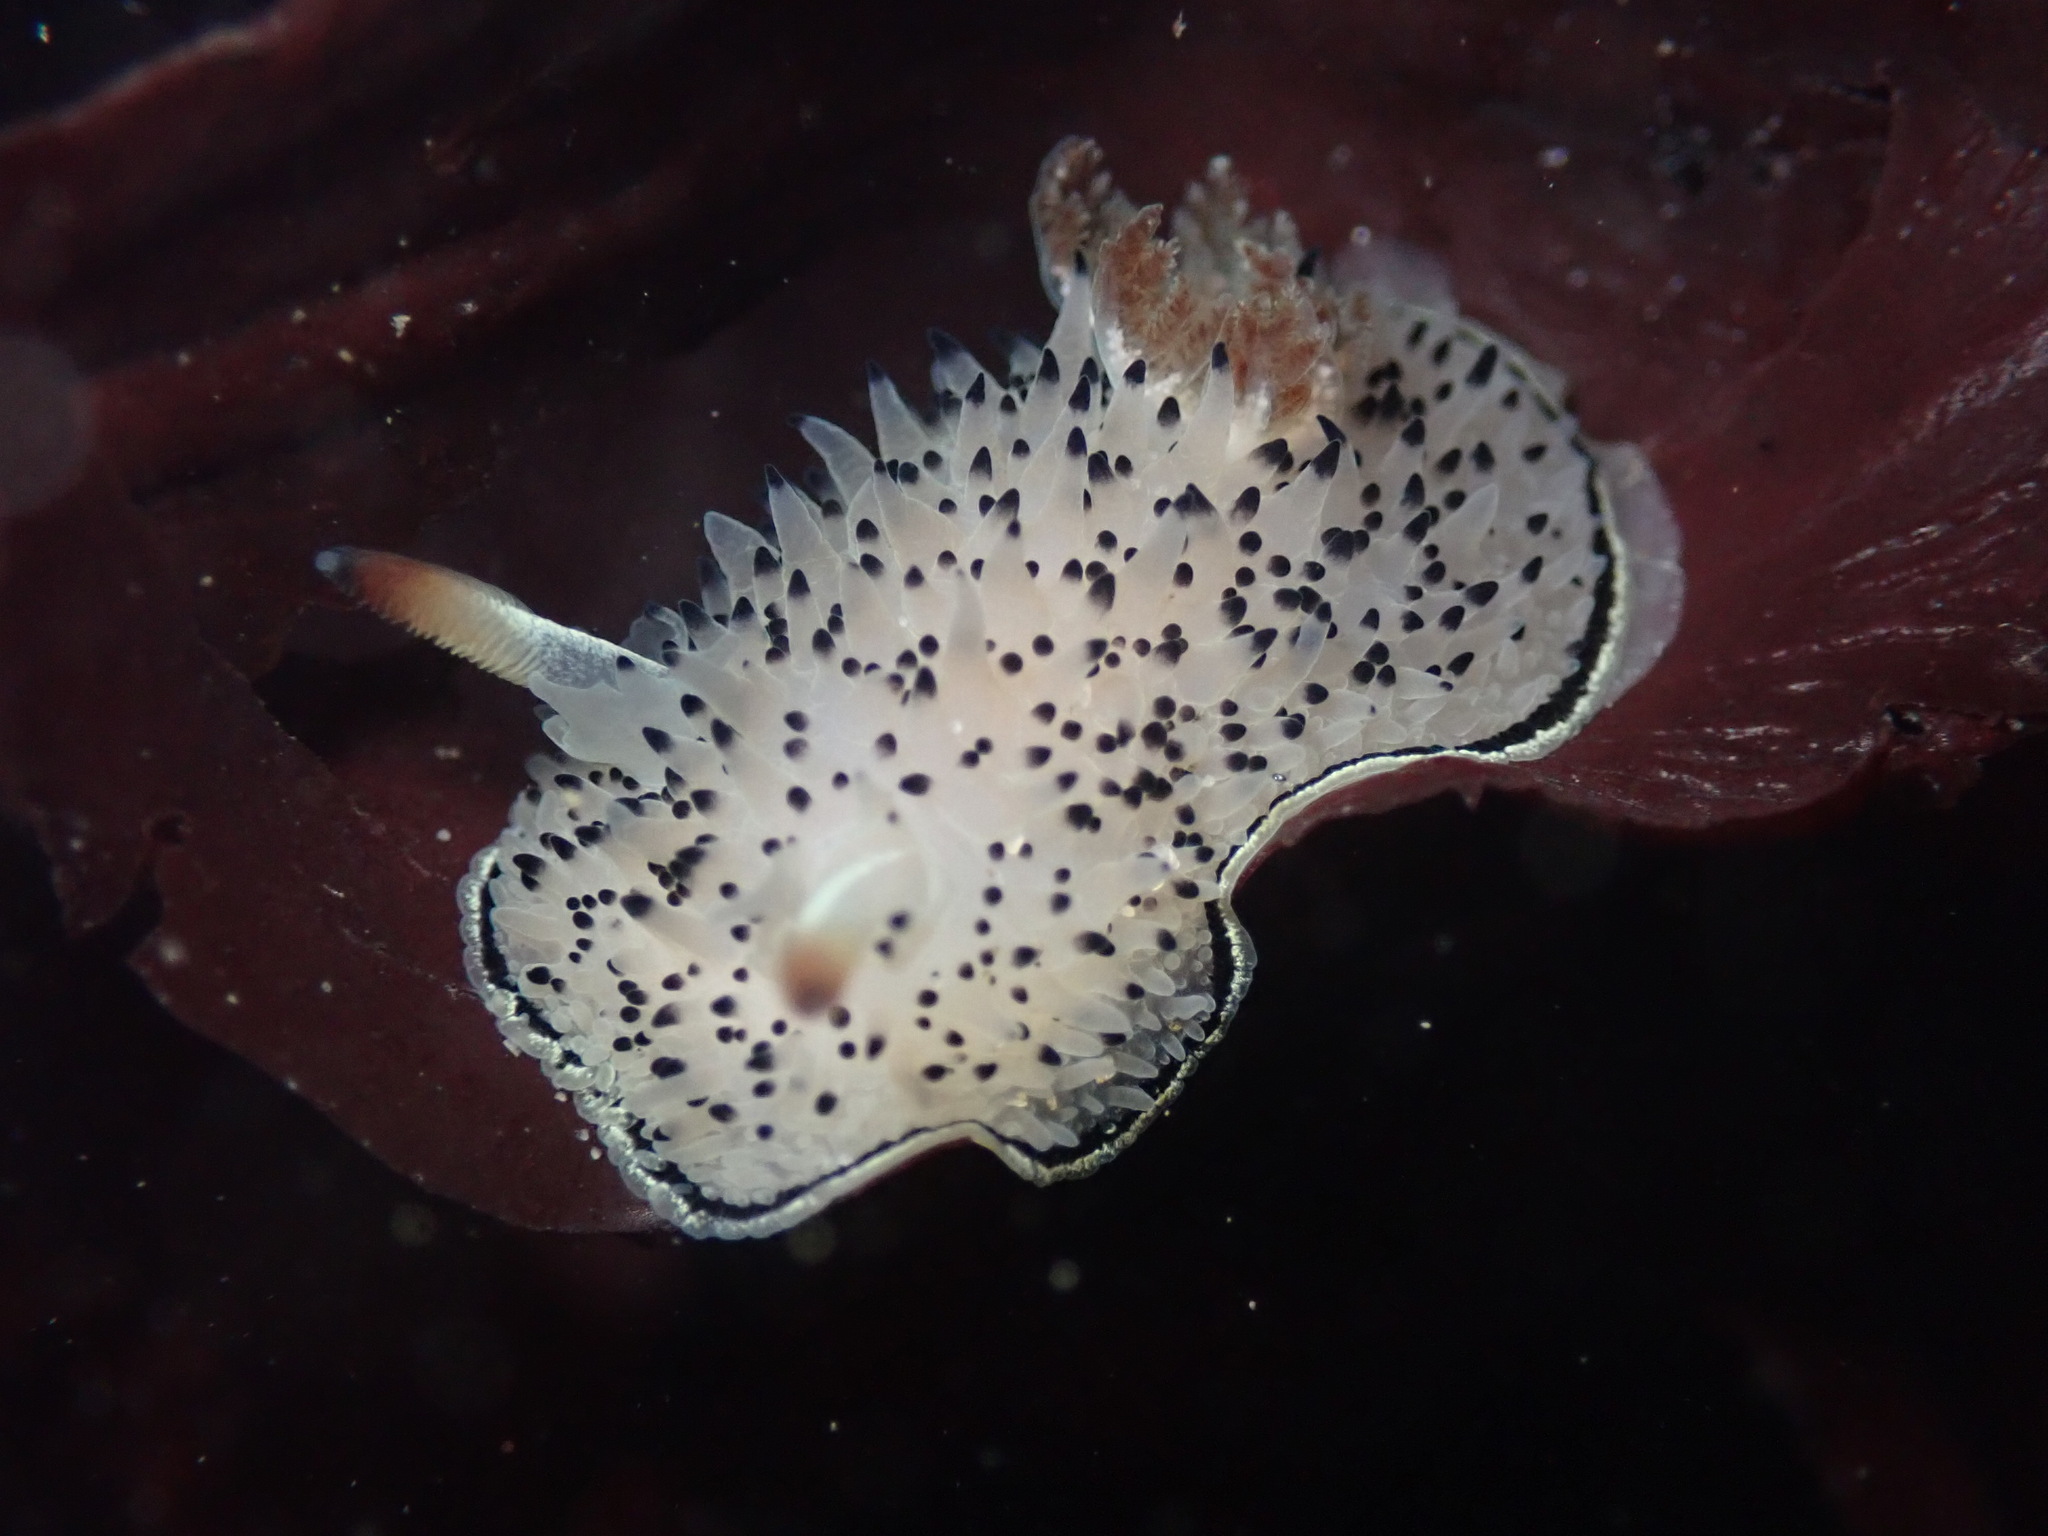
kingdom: Animalia
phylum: Mollusca
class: Gastropoda
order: Nudibranchia
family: Onchidorididae
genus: Acanthodoris
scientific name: Acanthodoris rhodoceras
